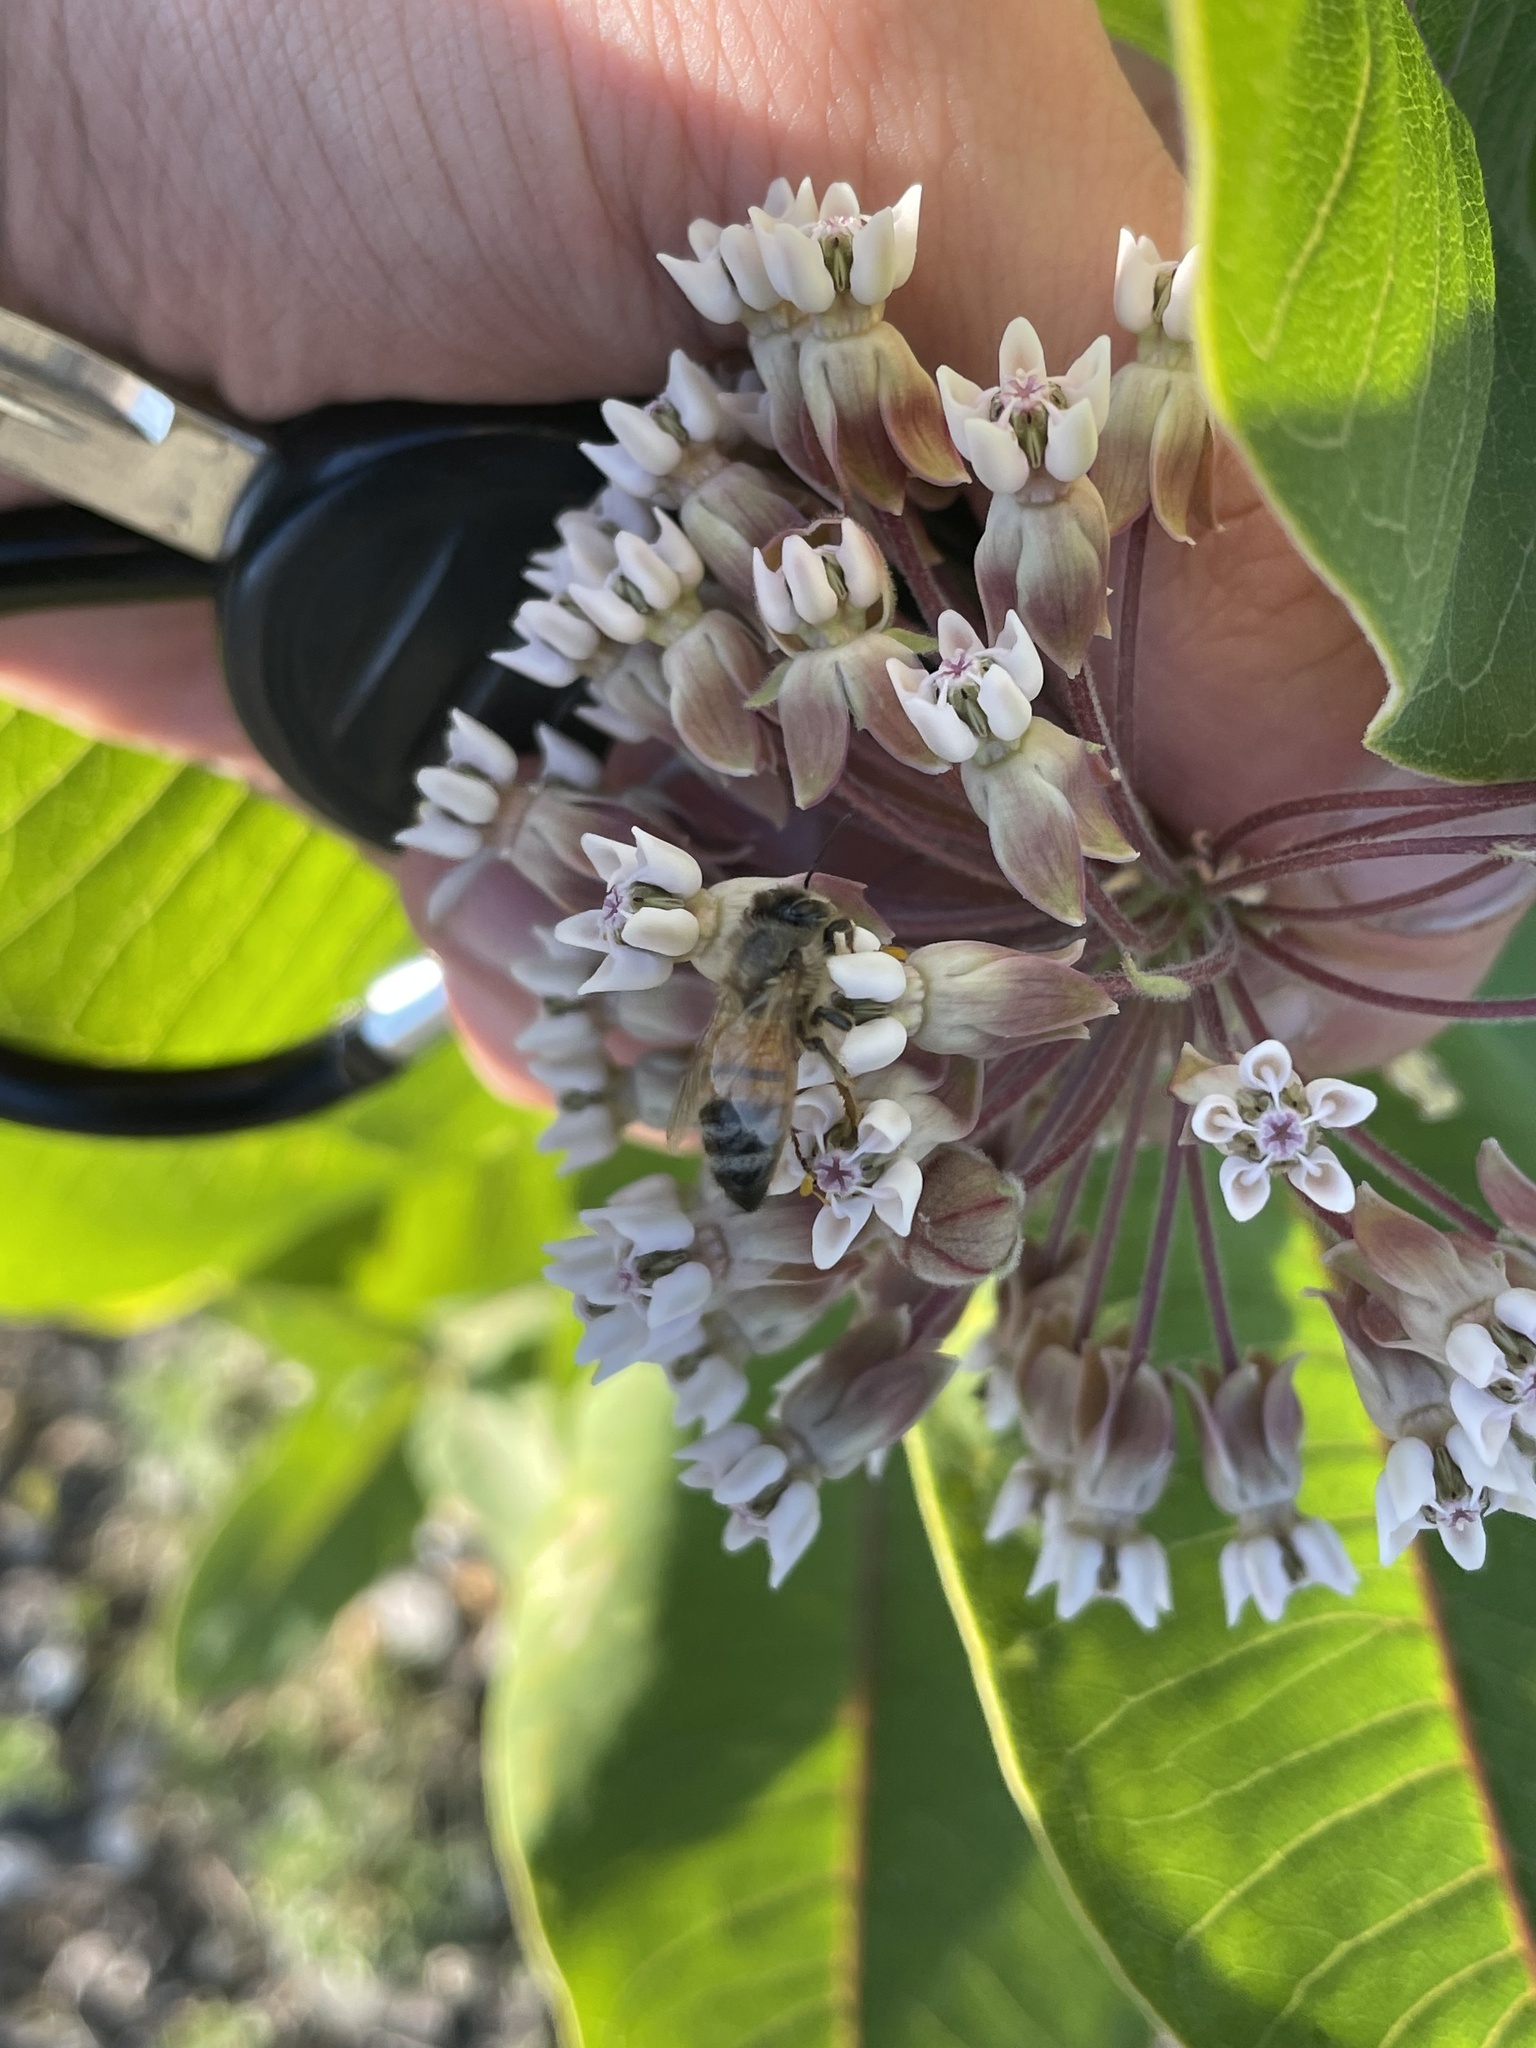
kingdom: Animalia
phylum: Arthropoda
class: Insecta
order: Hymenoptera
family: Apidae
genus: Apis
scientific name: Apis mellifera
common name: Honey bee
